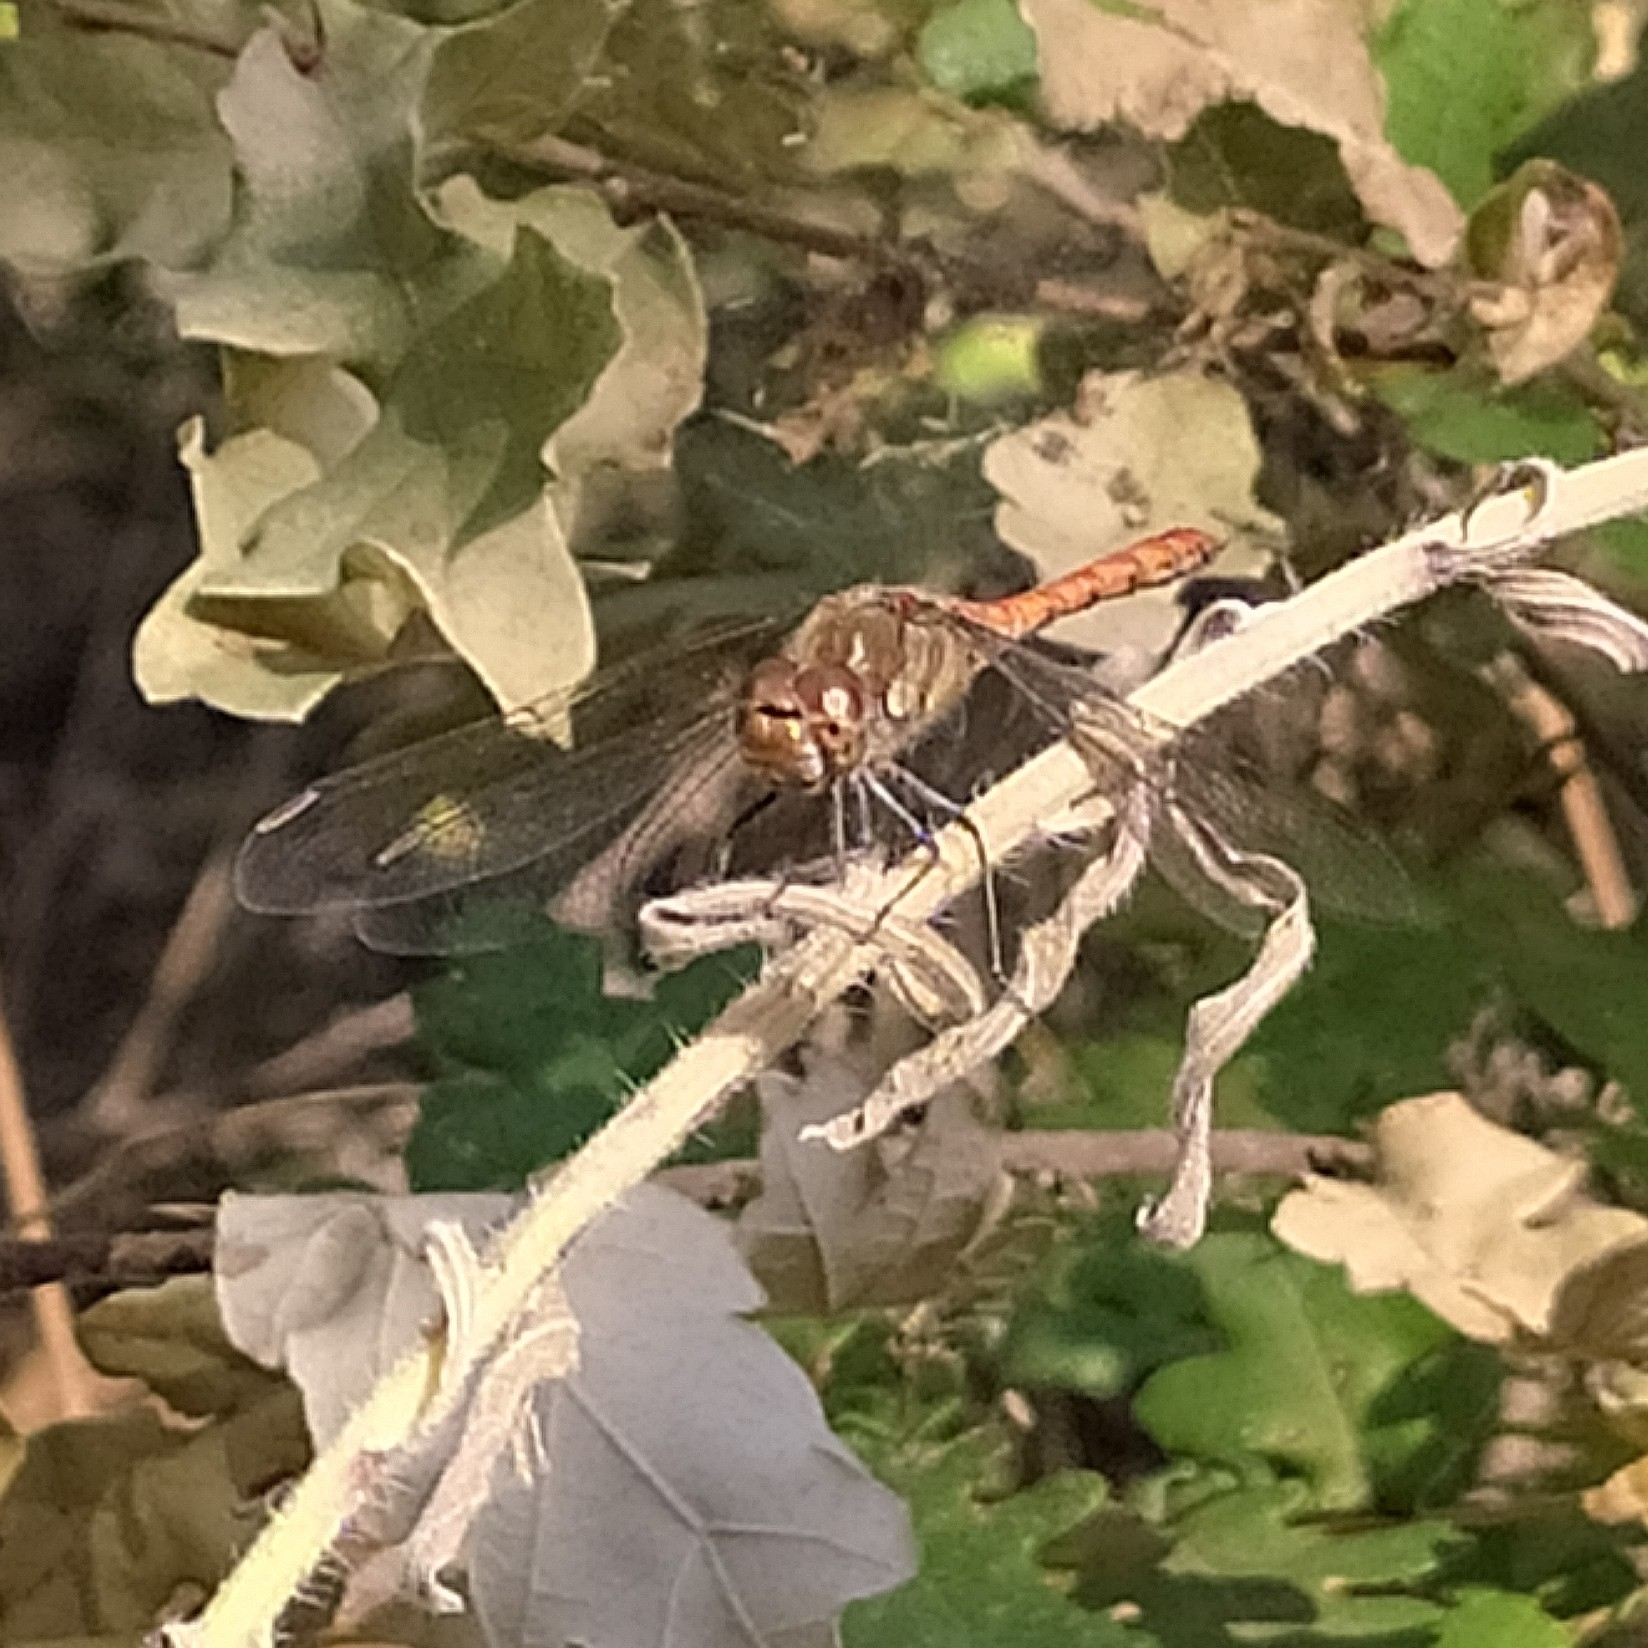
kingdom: Animalia
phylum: Arthropoda
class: Insecta
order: Odonata
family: Libellulidae
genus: Sympetrum
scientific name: Sympetrum striolatum
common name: Common darter
